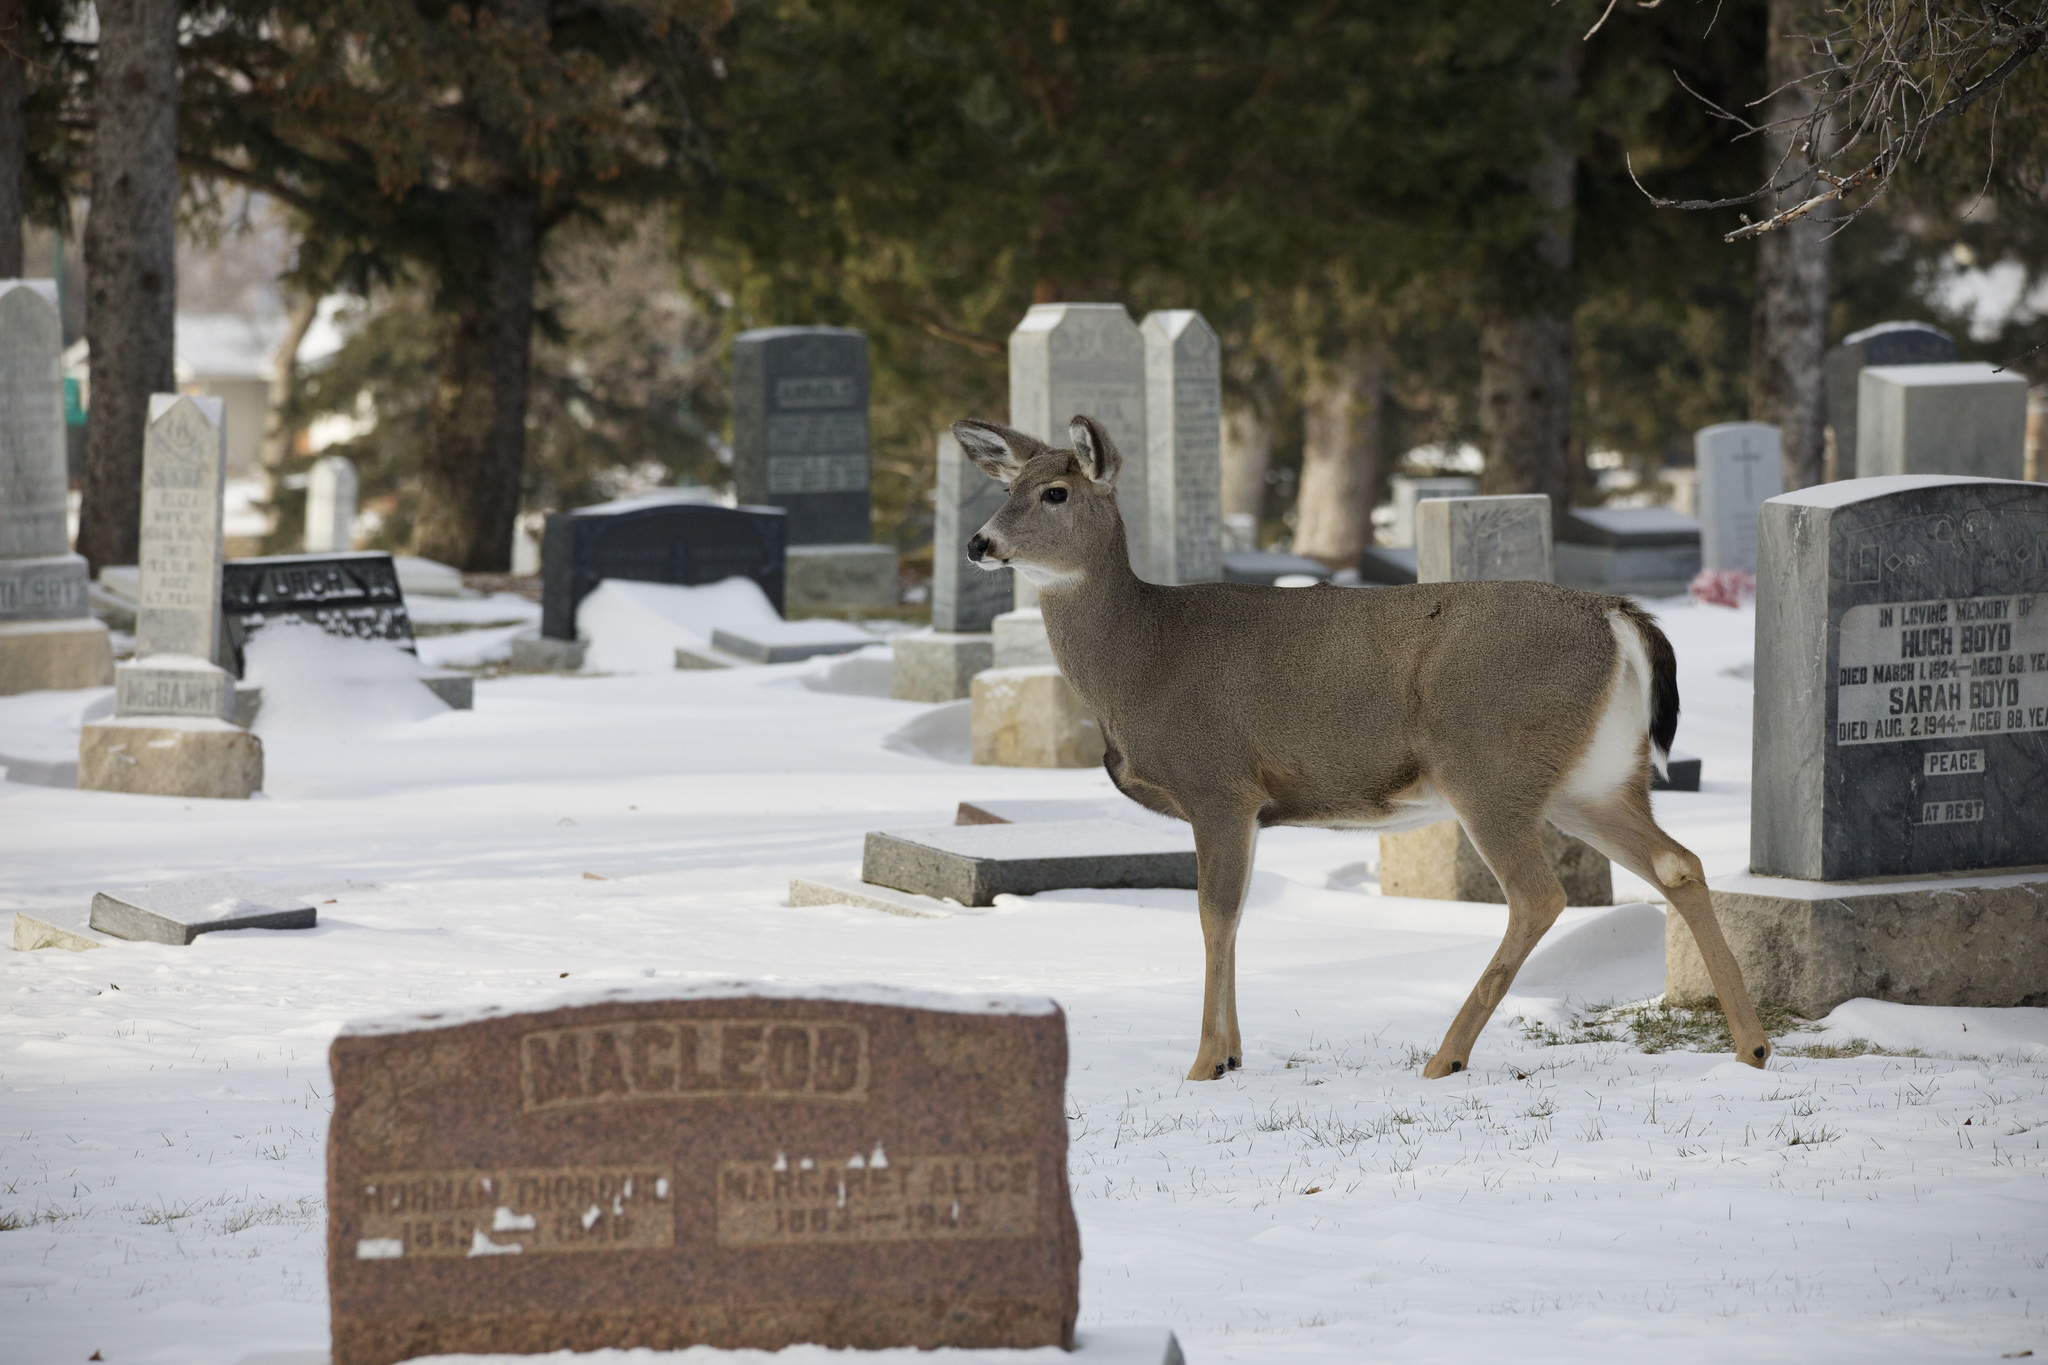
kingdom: Animalia
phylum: Chordata
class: Mammalia
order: Artiodactyla
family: Cervidae
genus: Odocoileus
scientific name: Odocoileus
